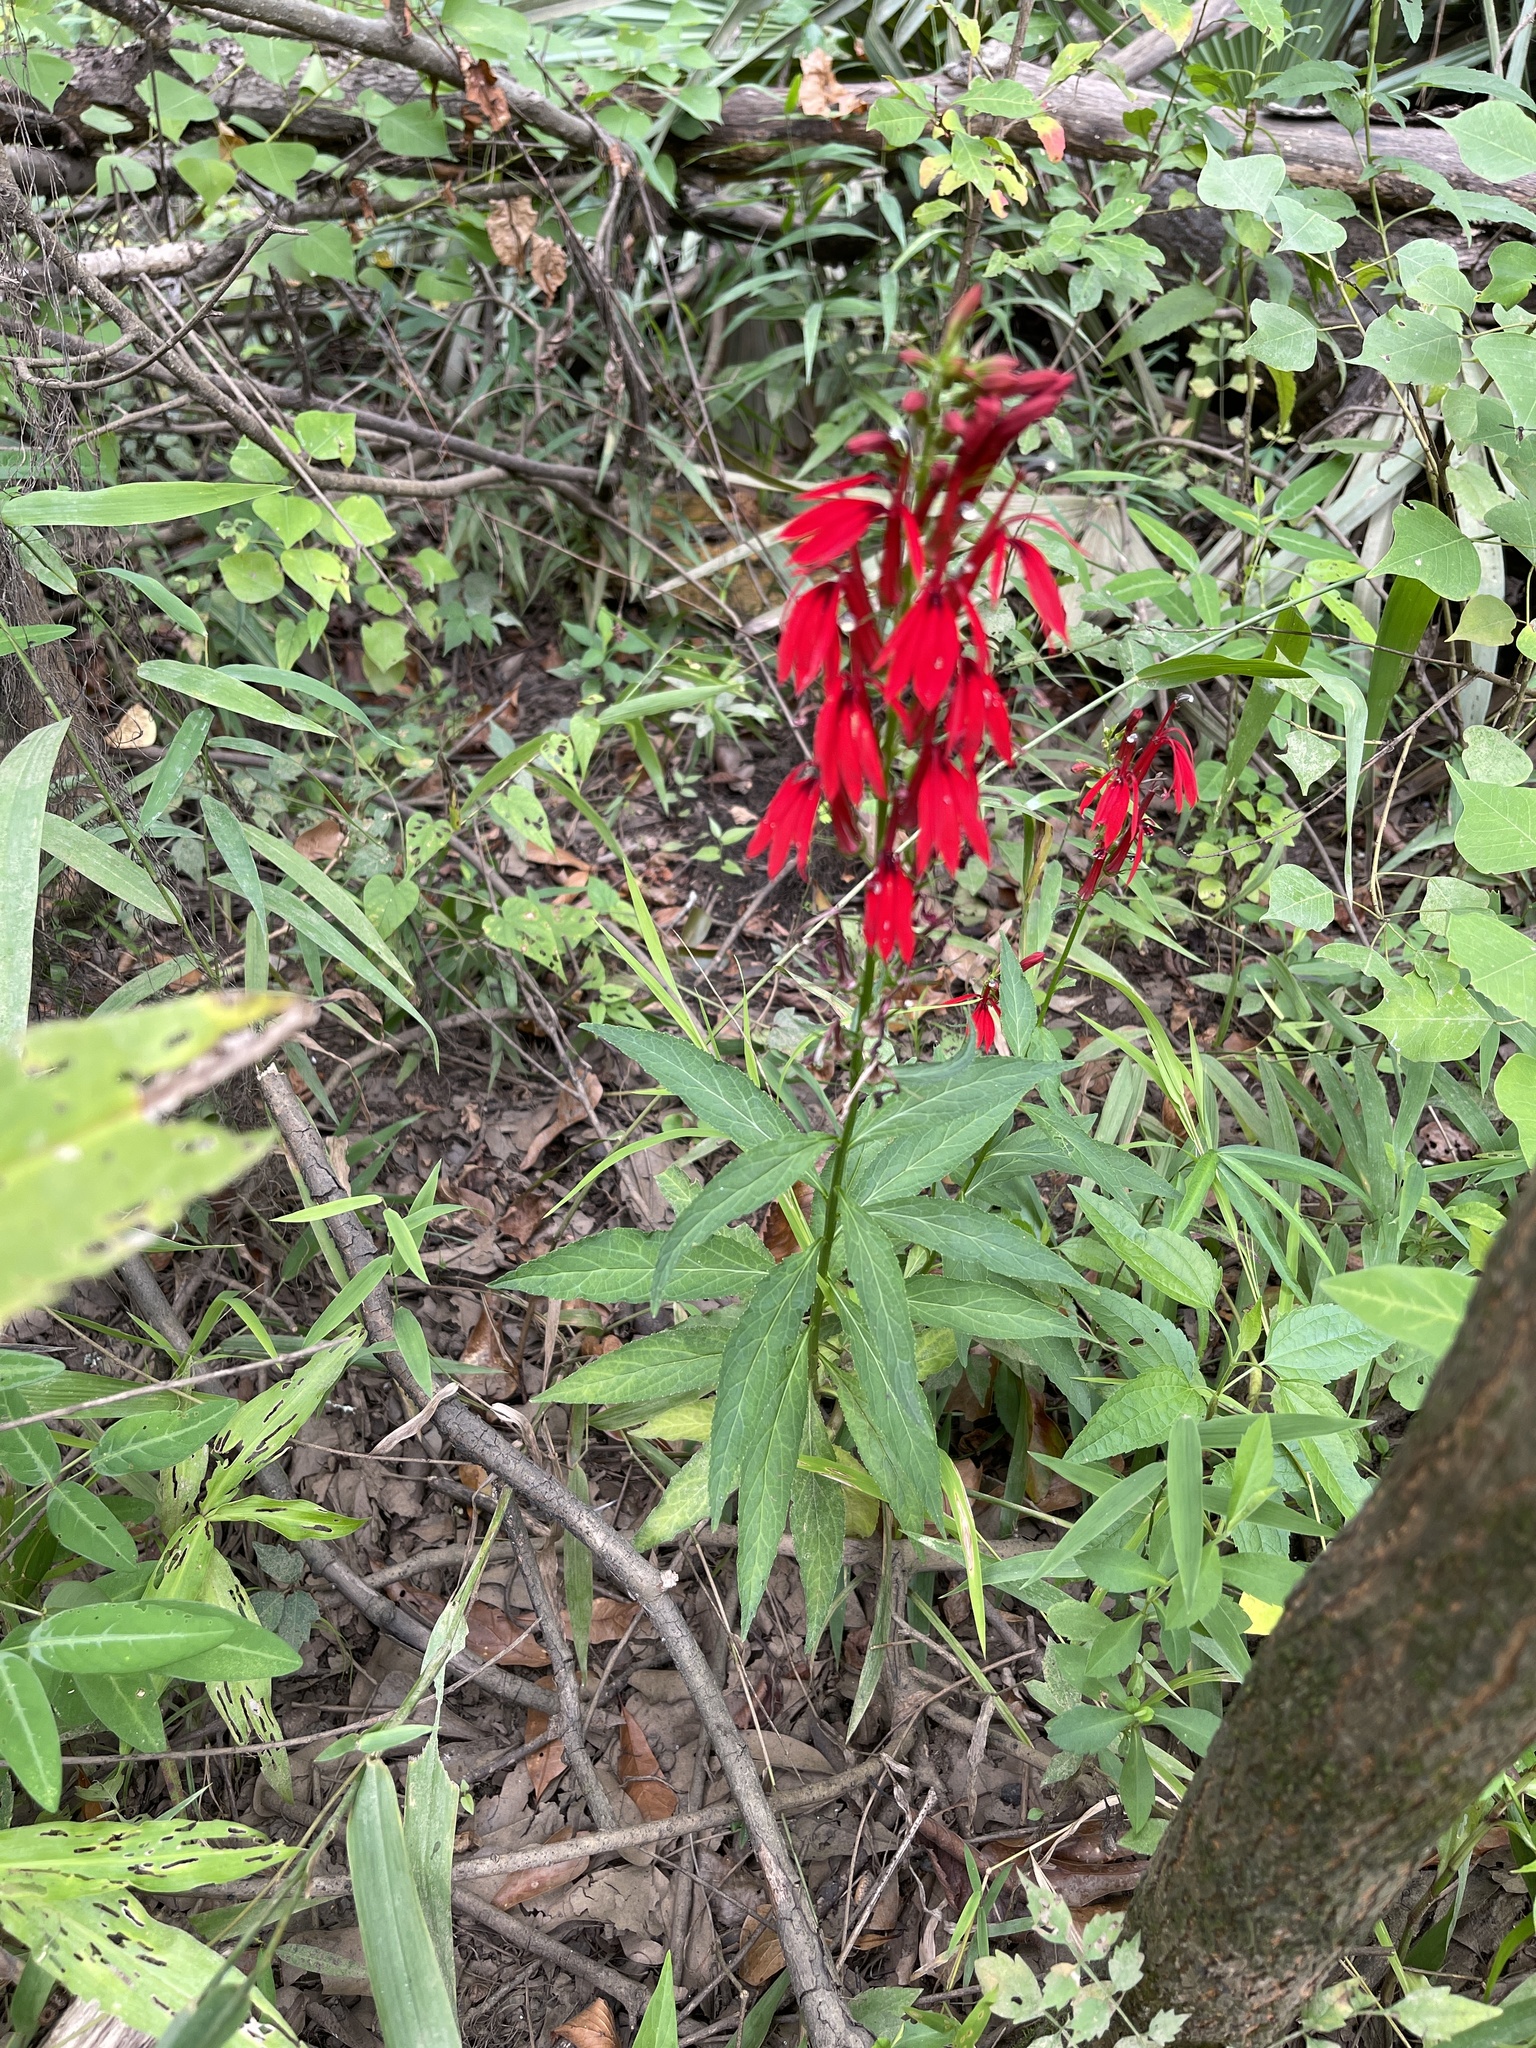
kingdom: Plantae
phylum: Tracheophyta
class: Magnoliopsida
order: Asterales
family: Campanulaceae
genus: Lobelia
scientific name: Lobelia cardinalis
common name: Cardinal flower
